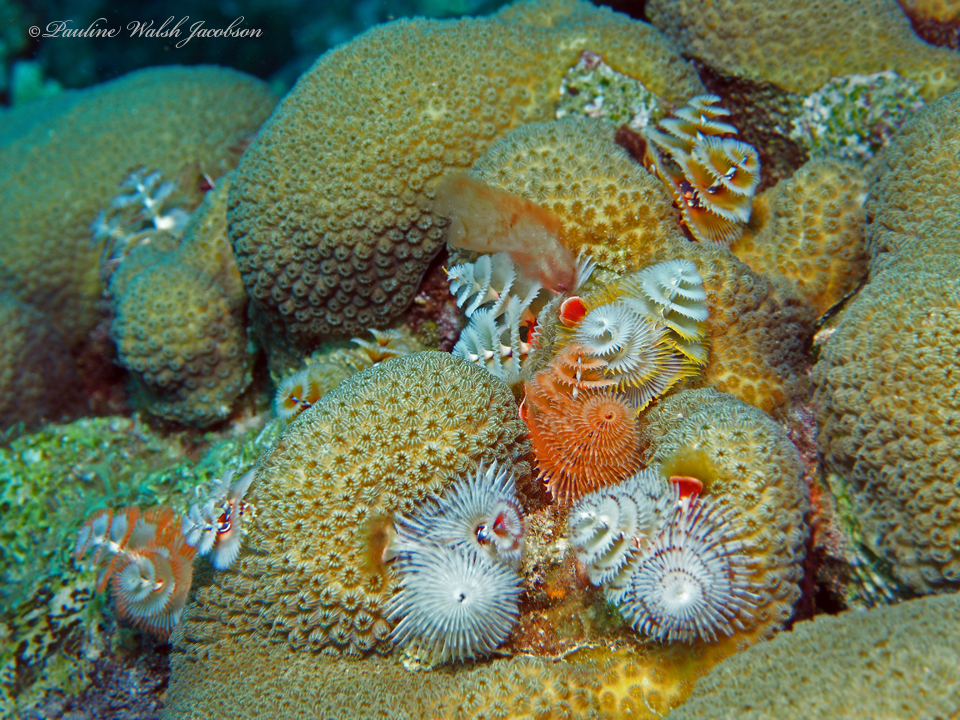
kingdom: Animalia
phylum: Annelida
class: Polychaeta
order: Sabellida
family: Serpulidae
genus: Spirobranchus
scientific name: Spirobranchus giganteus
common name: Christmas tree worm
